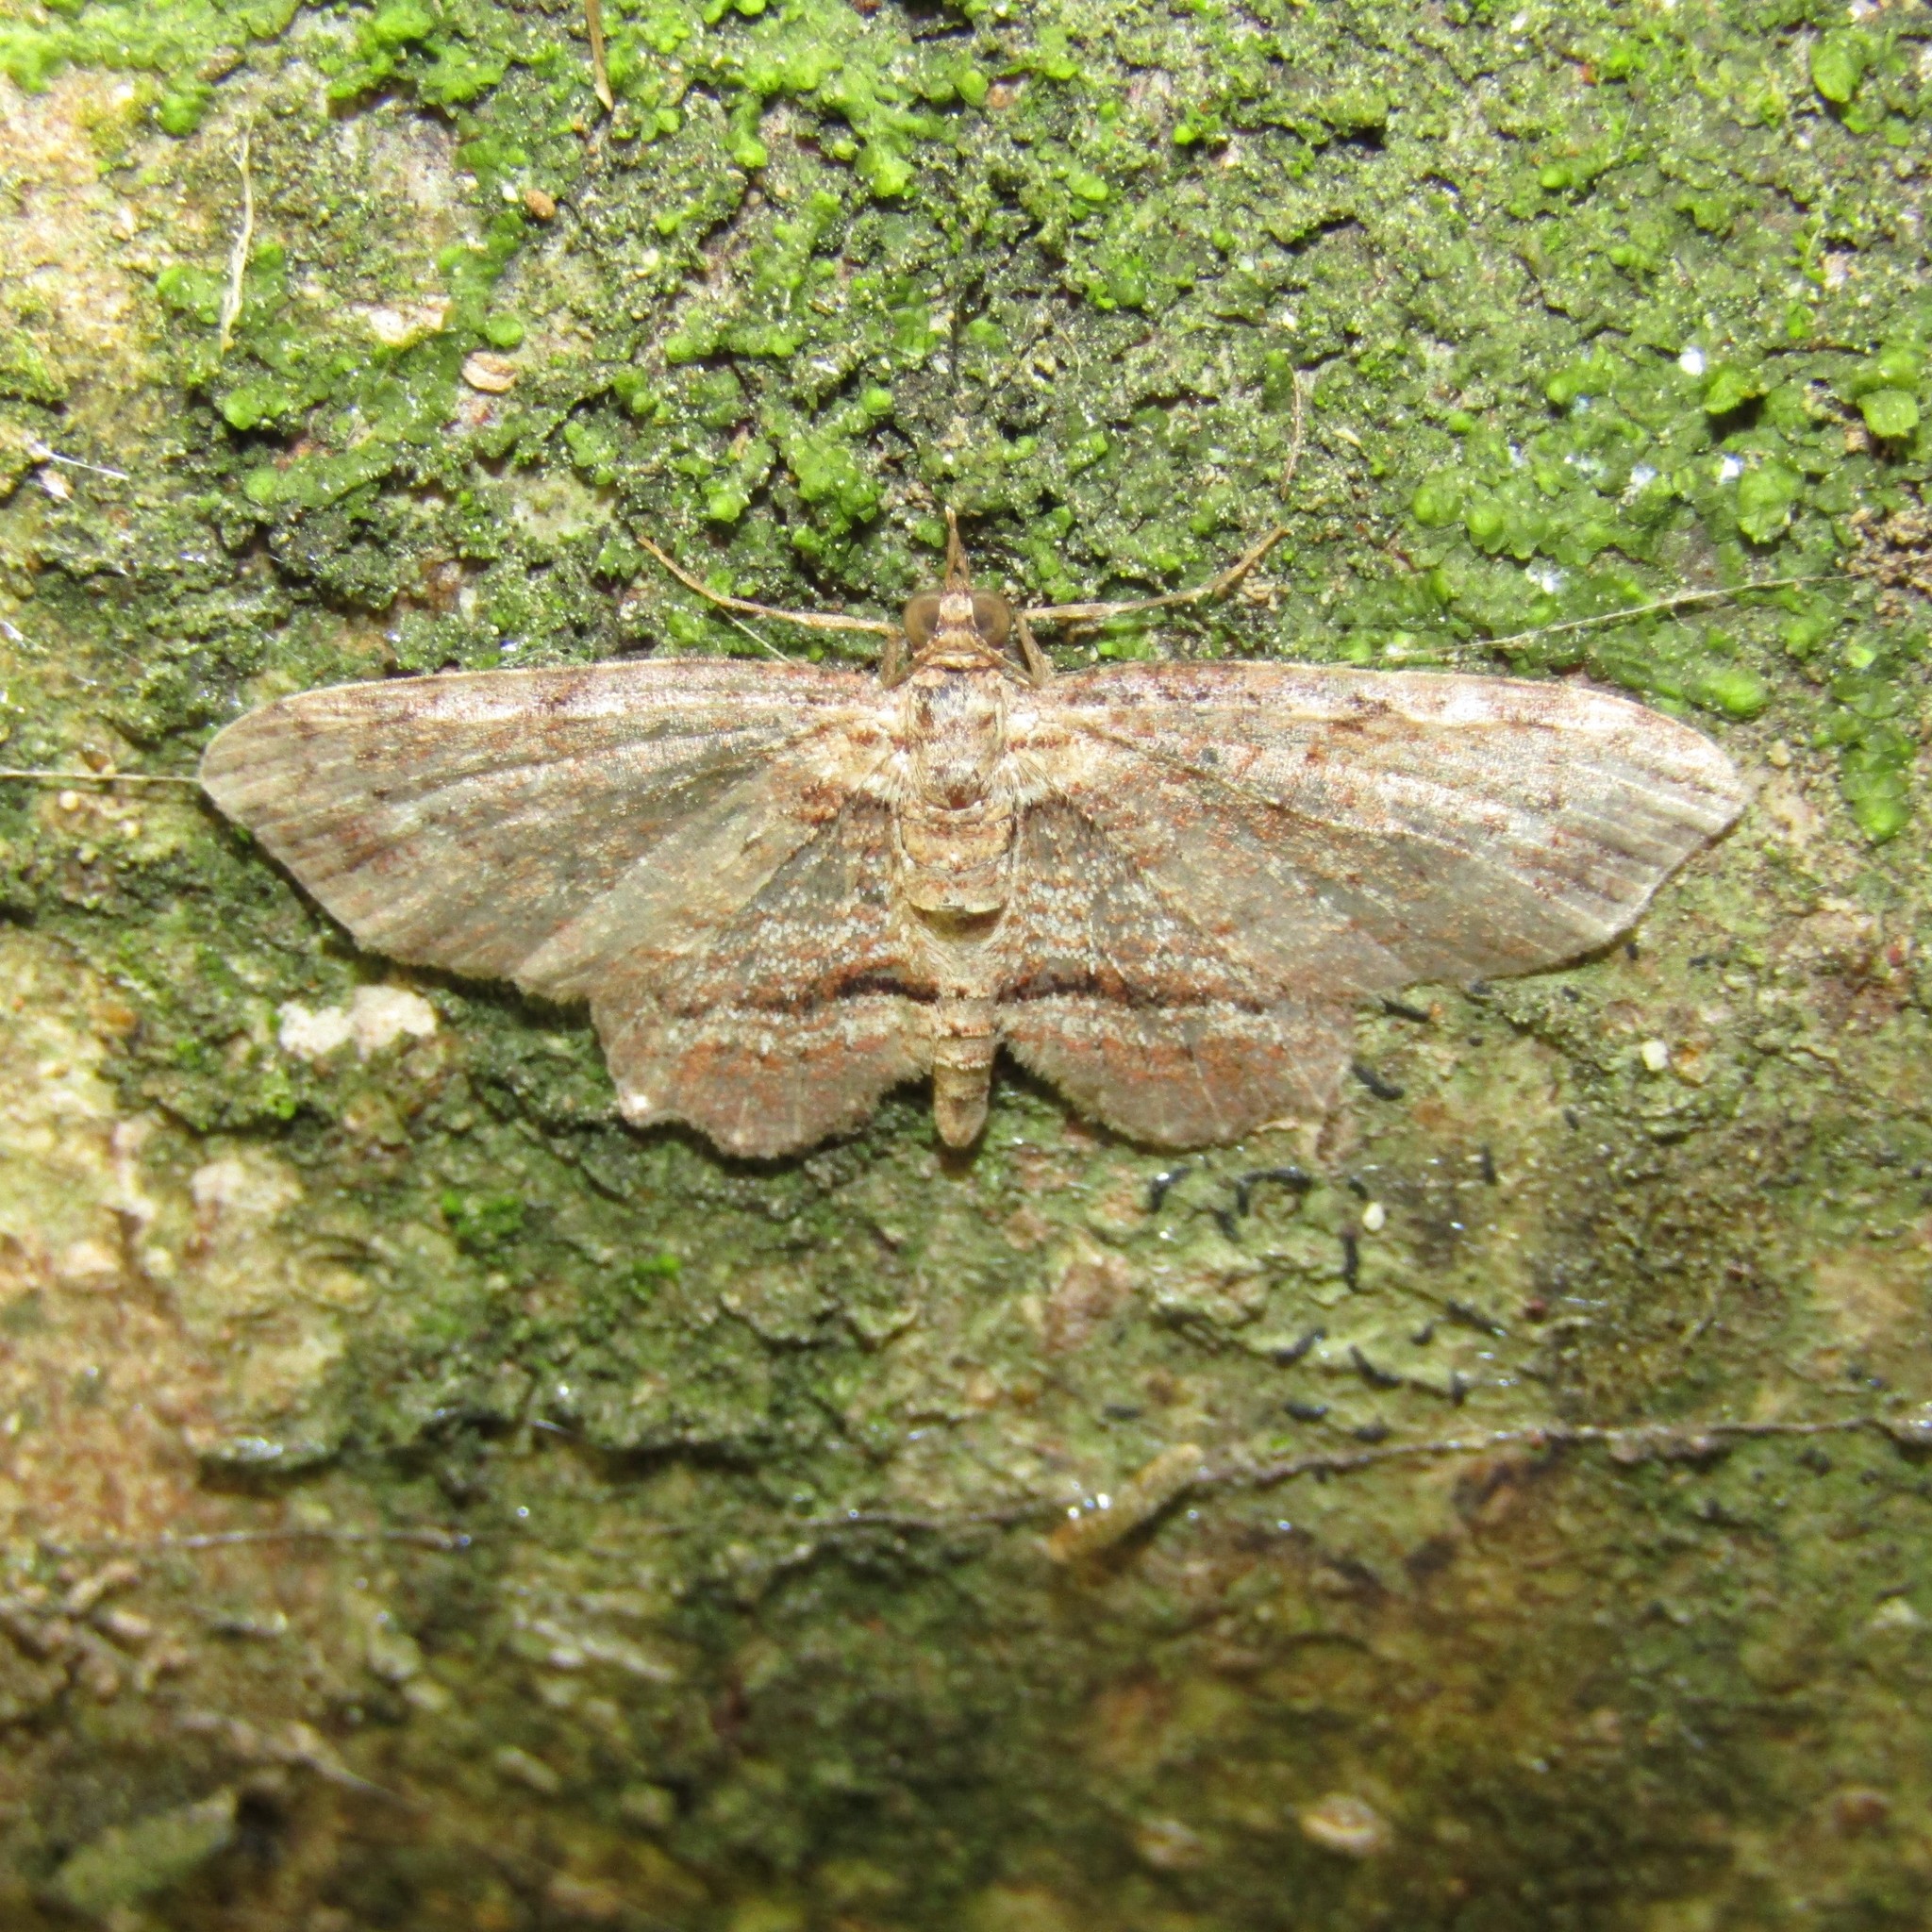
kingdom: Animalia
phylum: Arthropoda
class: Insecta
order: Lepidoptera
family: Geometridae
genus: Chloroclystis
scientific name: Chloroclystis filata
